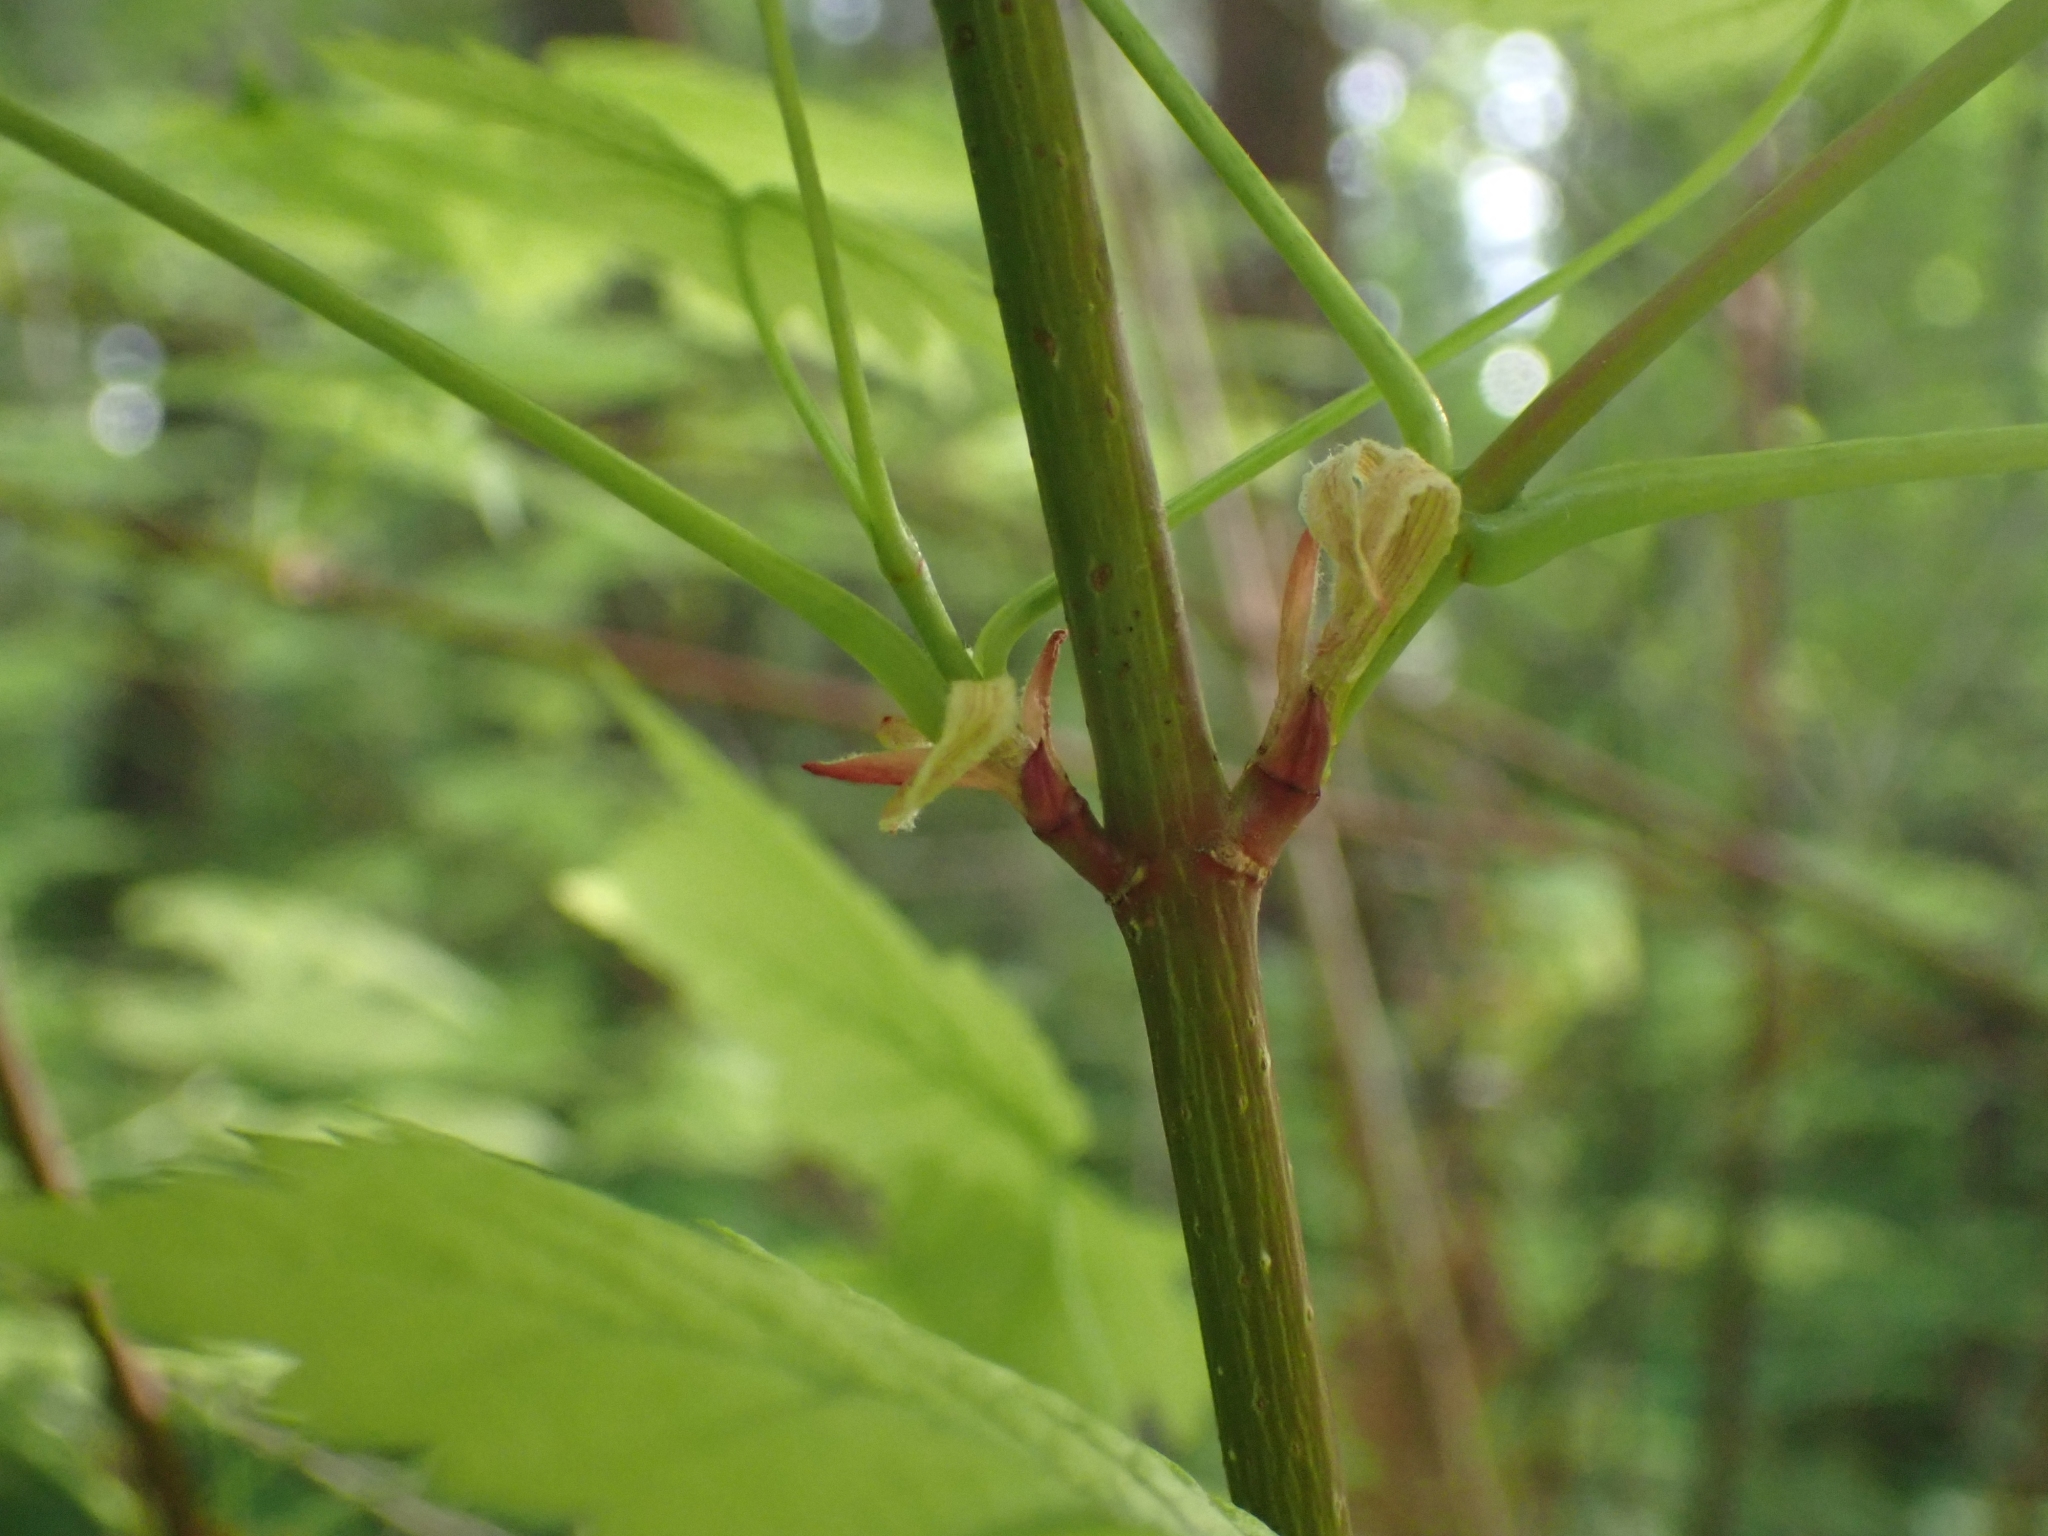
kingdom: Plantae
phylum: Tracheophyta
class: Magnoliopsida
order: Sapindales
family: Sapindaceae
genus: Acer
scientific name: Acer glabrum
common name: Rocky mountain maple
